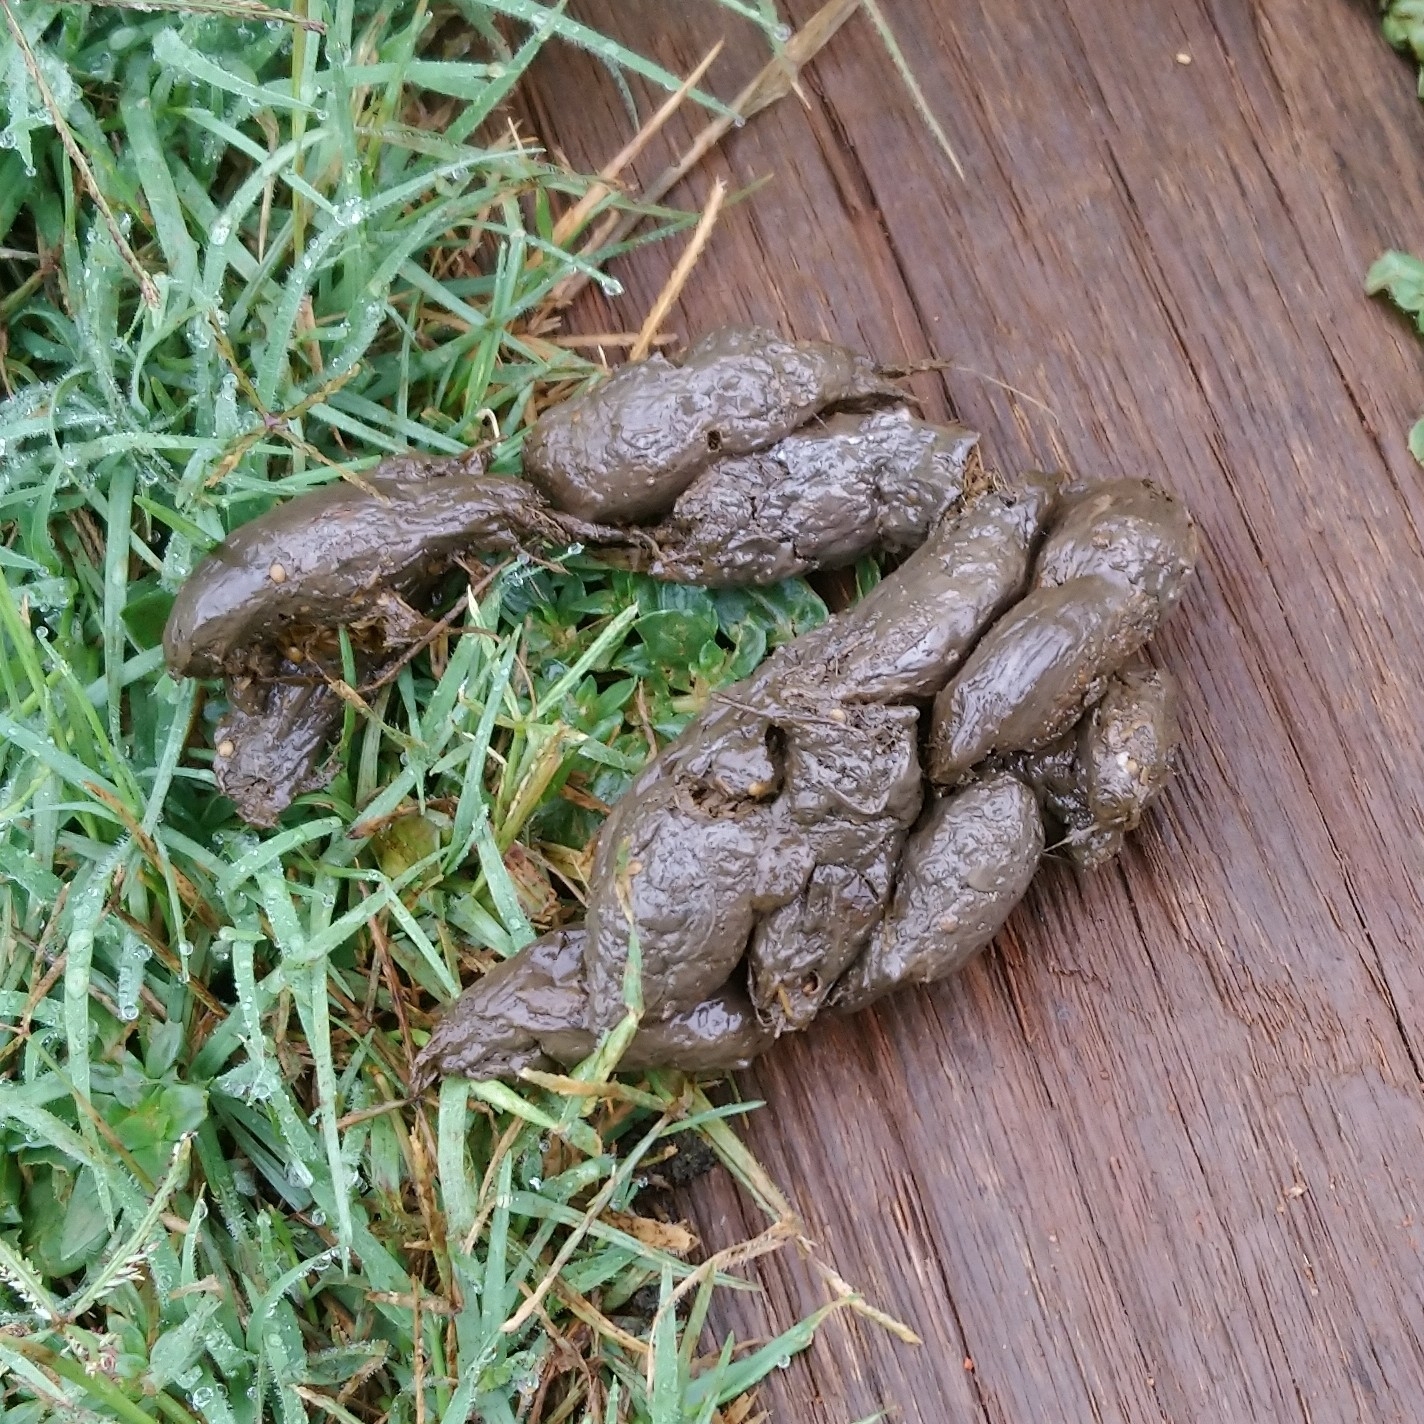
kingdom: Animalia
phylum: Chordata
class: Mammalia
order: Rodentia
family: Hystricidae
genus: Hystrix
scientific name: Hystrix africaeaustralis
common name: Cape porcupine
